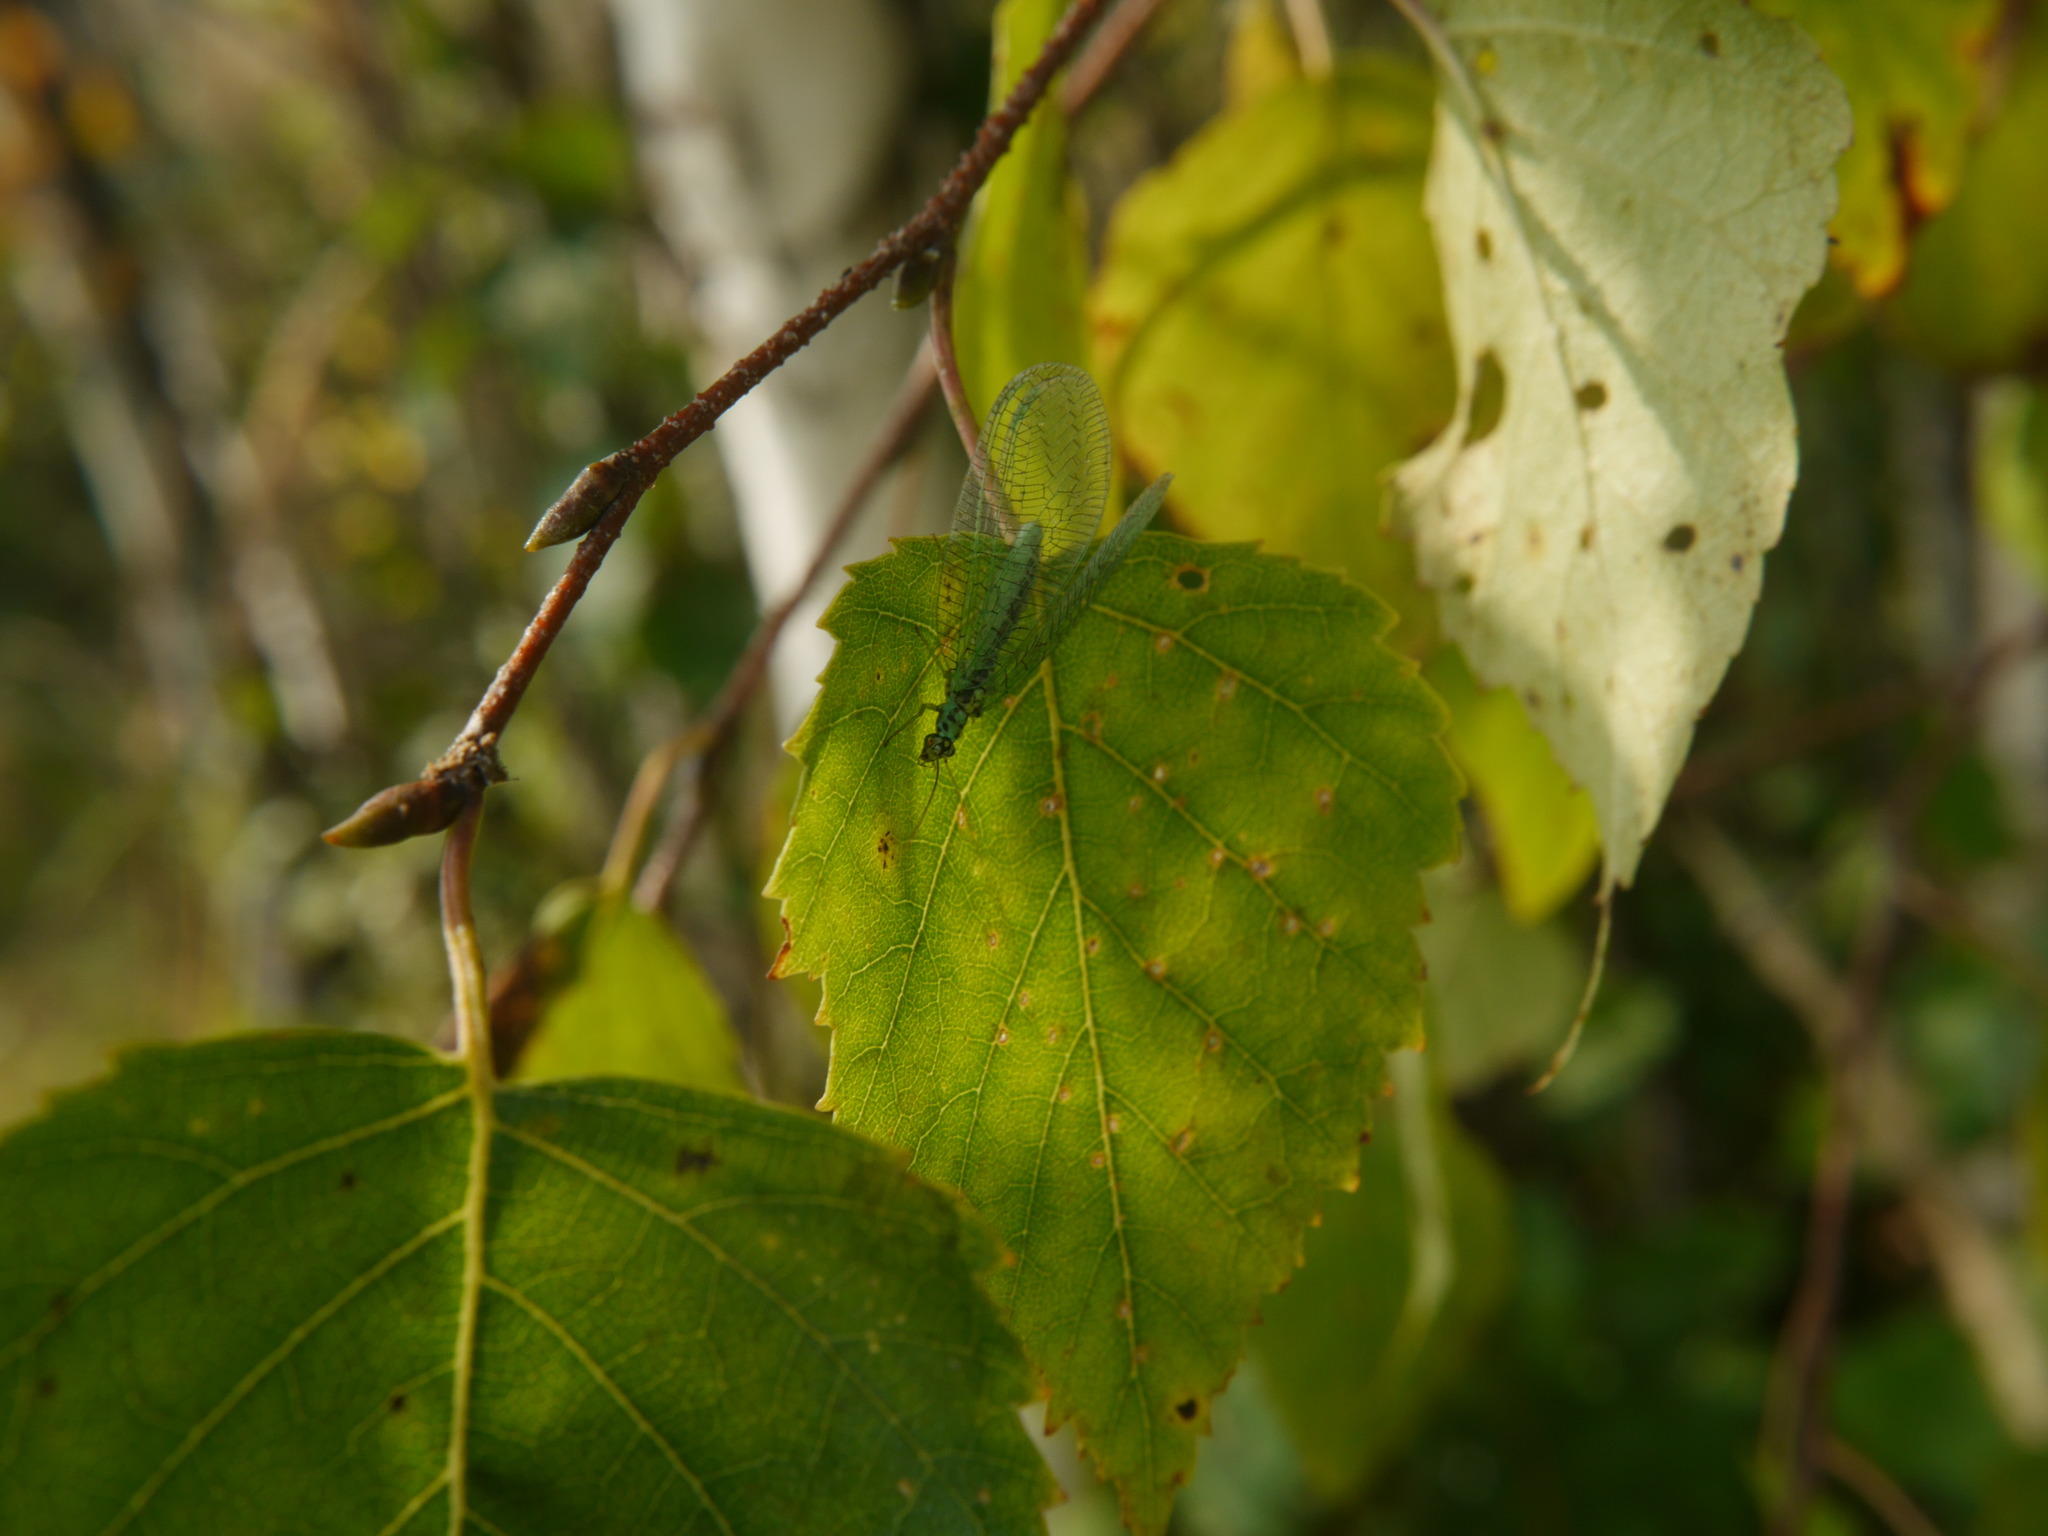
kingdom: Animalia
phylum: Arthropoda
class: Insecta
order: Neuroptera
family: Chrysopidae
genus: Chrysopa
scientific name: Chrysopa perla
